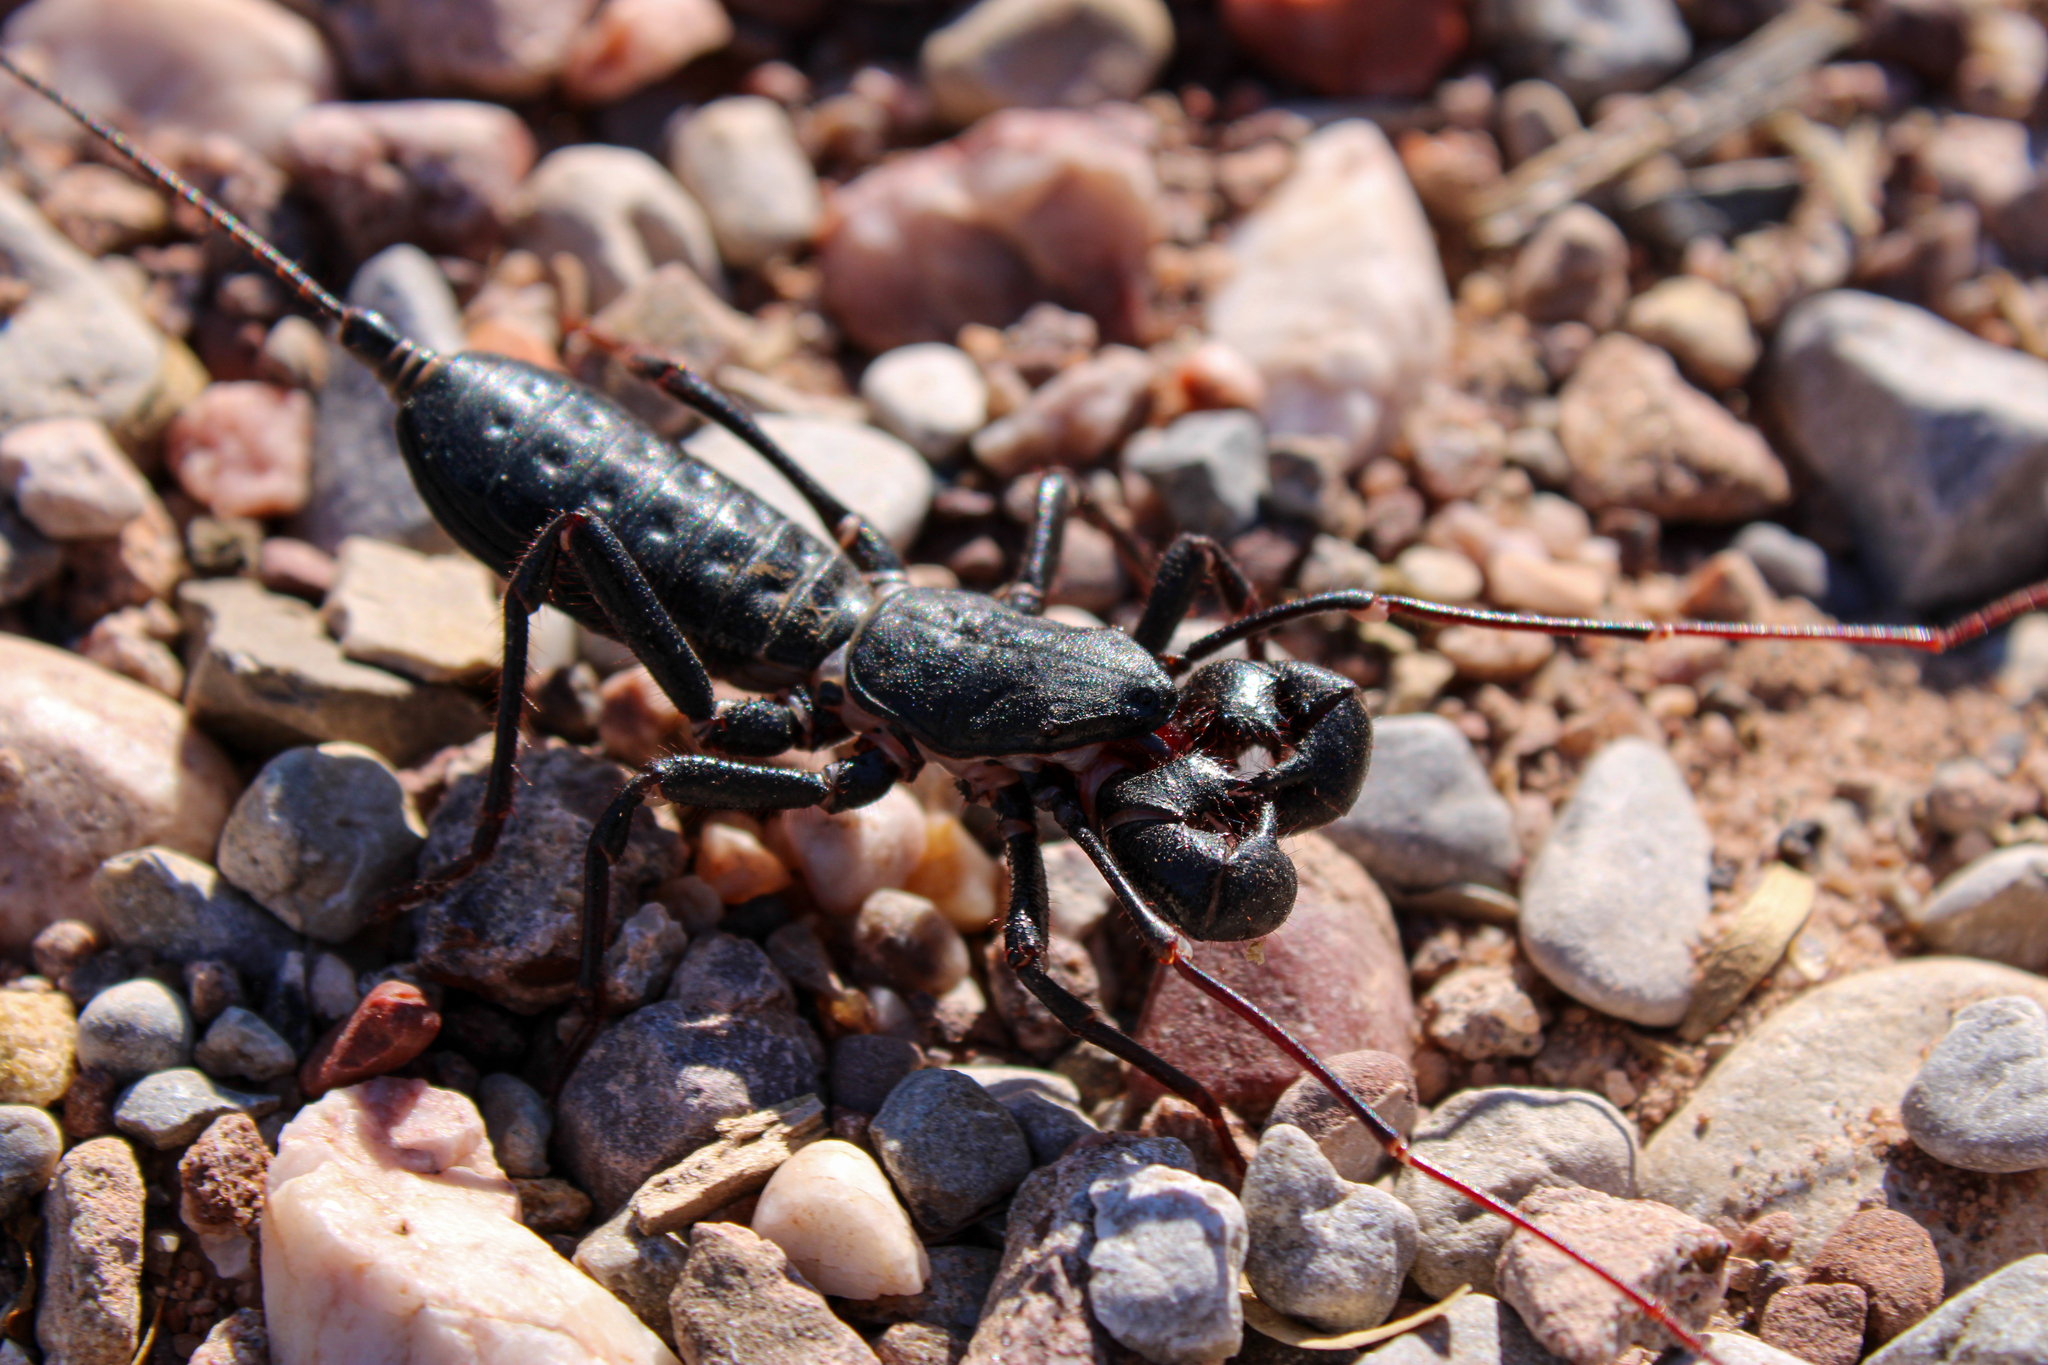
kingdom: Animalia
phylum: Arthropoda
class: Arachnida
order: Uropygi
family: Thelyphonidae
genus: Mastigoproctus
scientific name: Mastigoproctus giganteus
